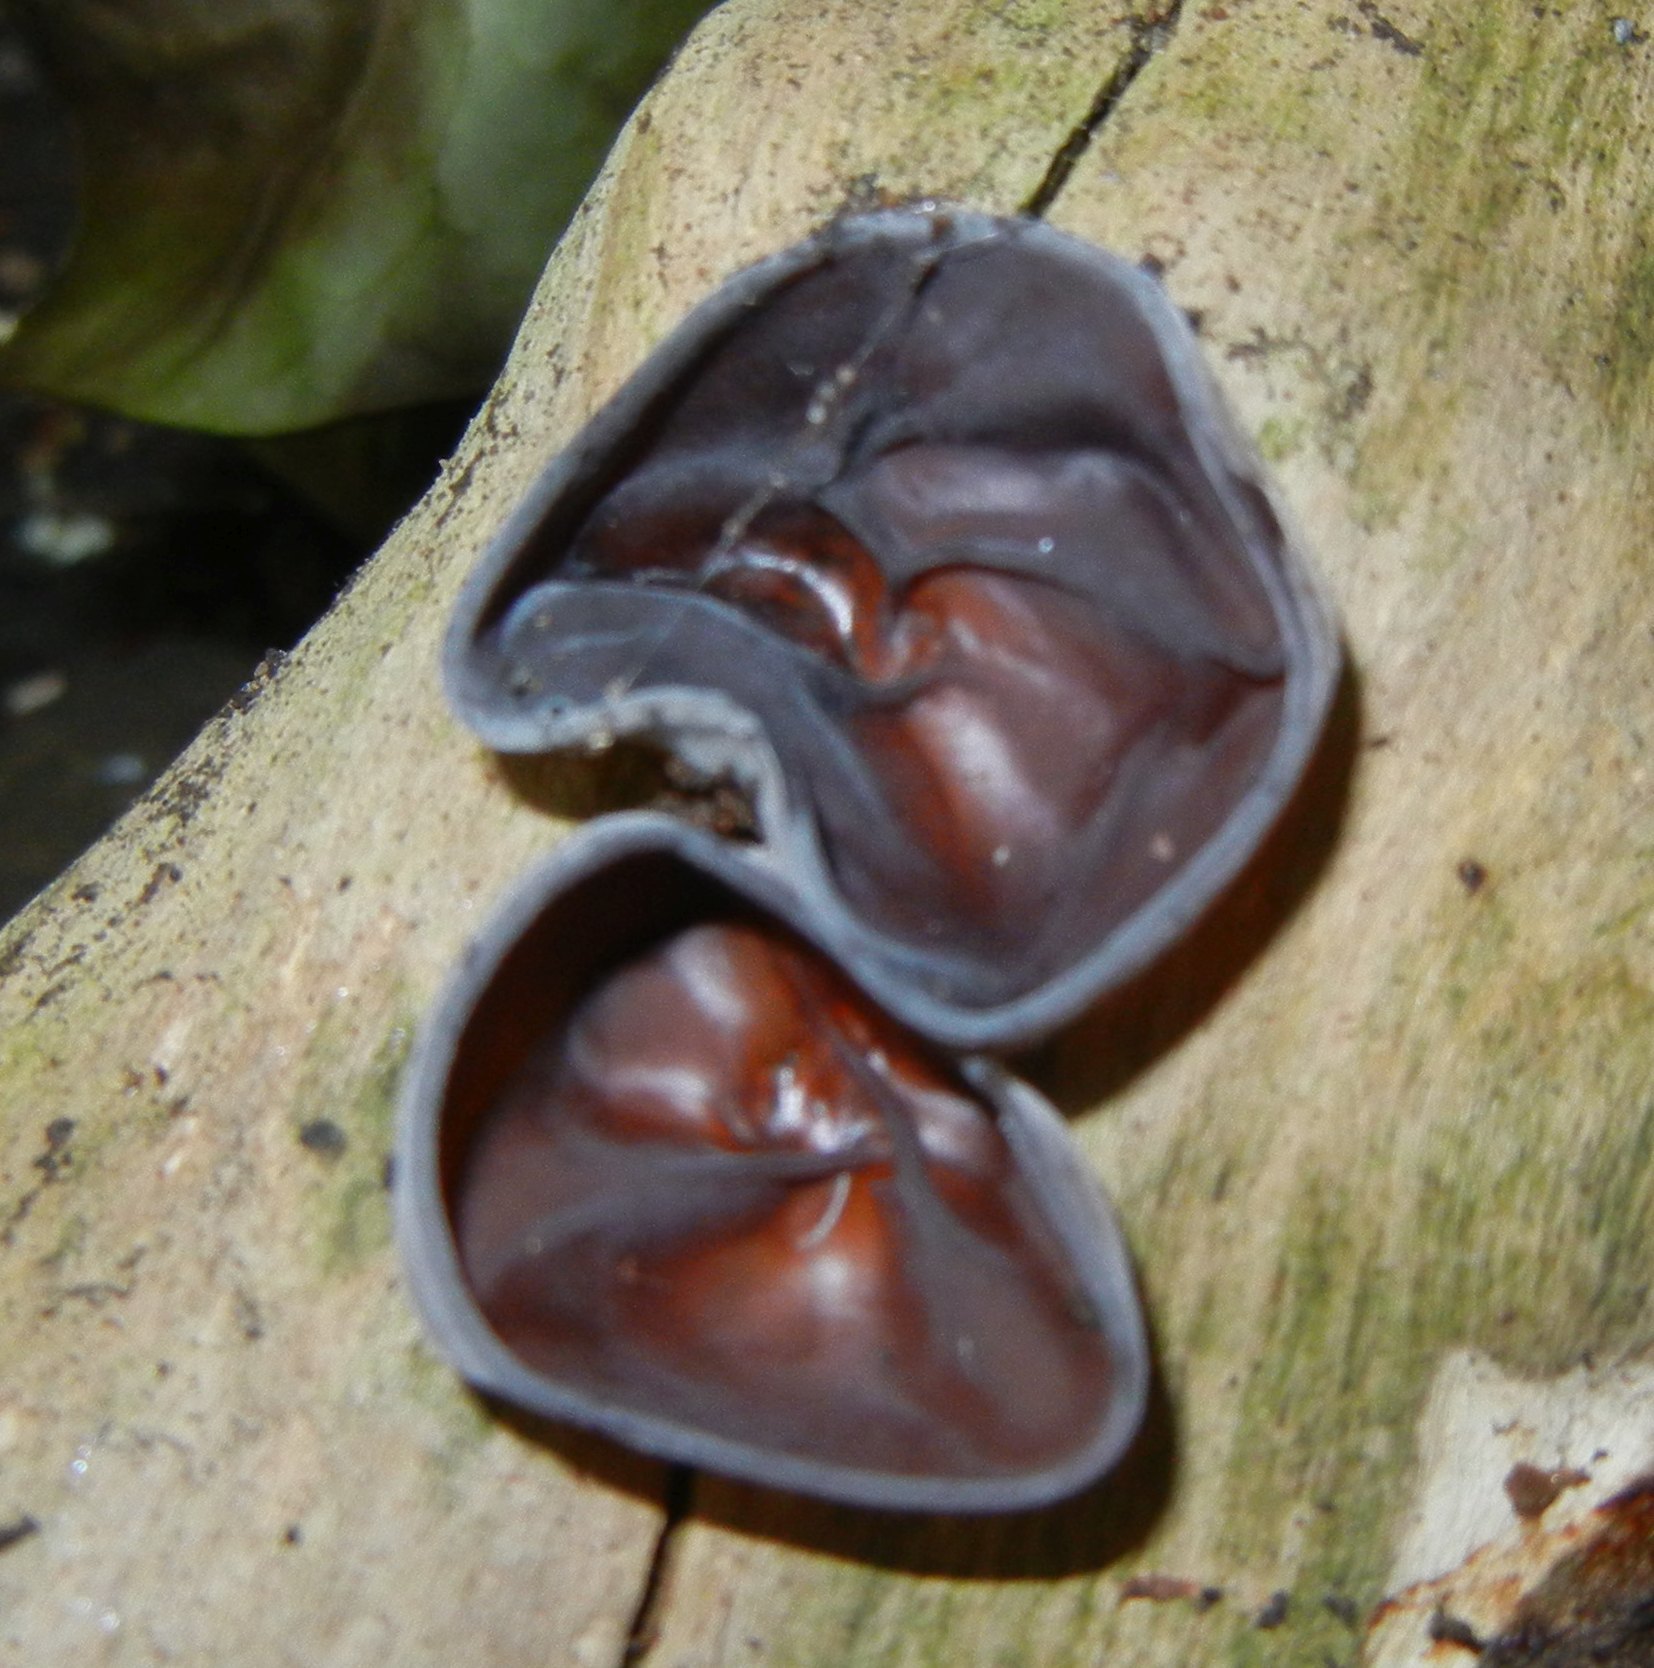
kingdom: Fungi
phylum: Basidiomycota
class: Agaricomycetes
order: Auriculariales
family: Auriculariaceae
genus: Auricularia
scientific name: Auricularia auricula-judae
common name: Jelly ear
